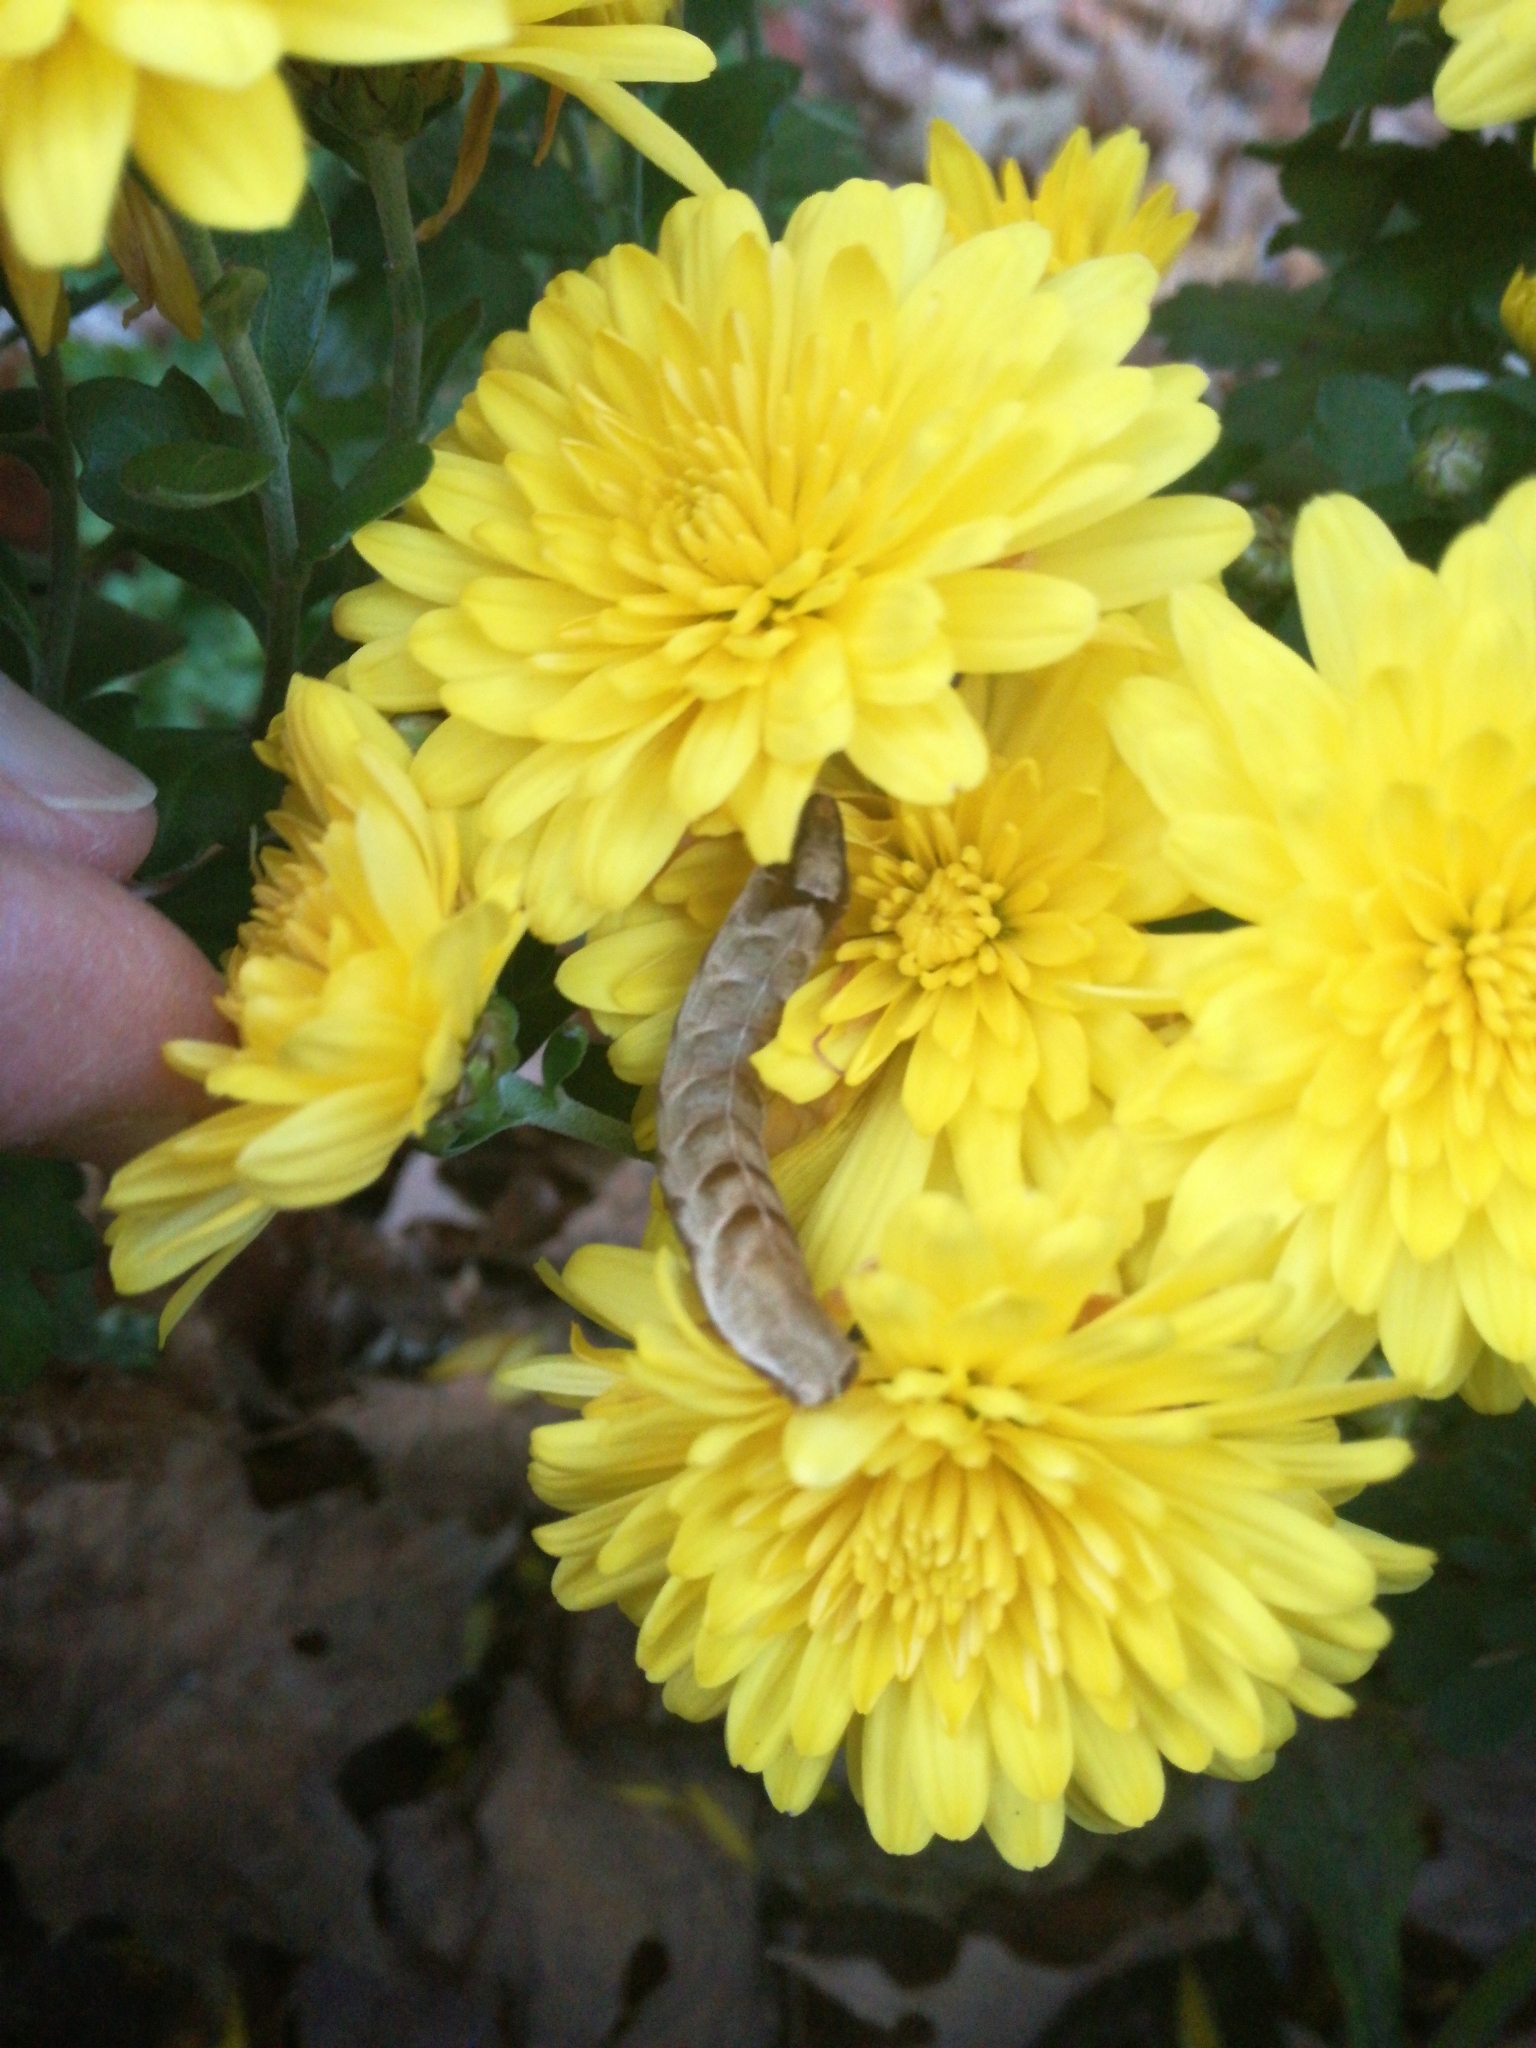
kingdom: Animalia
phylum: Arthropoda
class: Insecta
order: Lepidoptera
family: Noctuidae
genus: Melanchra
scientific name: Melanchra adjuncta
